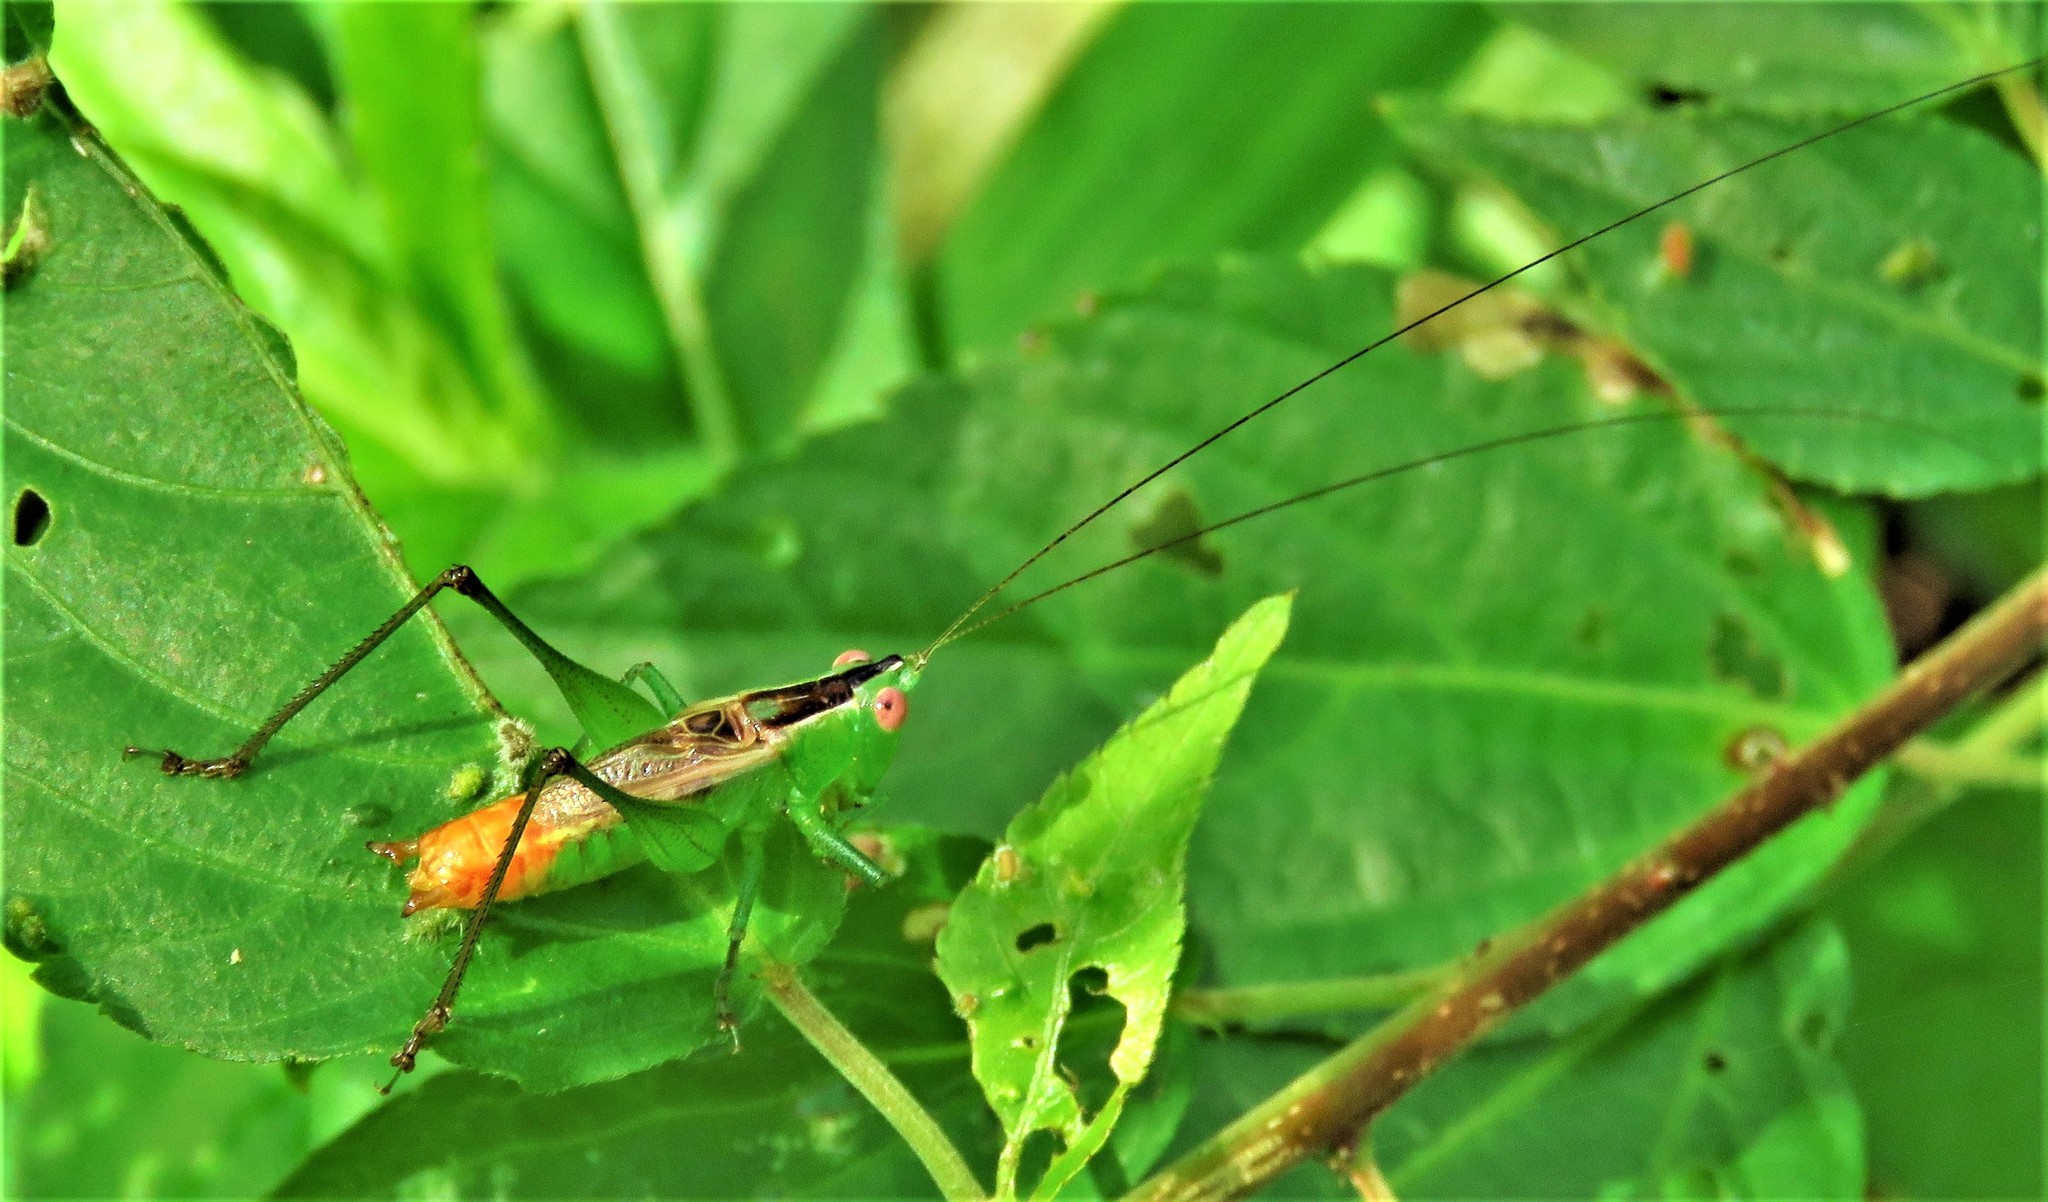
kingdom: Animalia
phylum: Arthropoda
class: Insecta
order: Orthoptera
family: Tettigoniidae
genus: Conocephalus
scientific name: Conocephalus ictus
